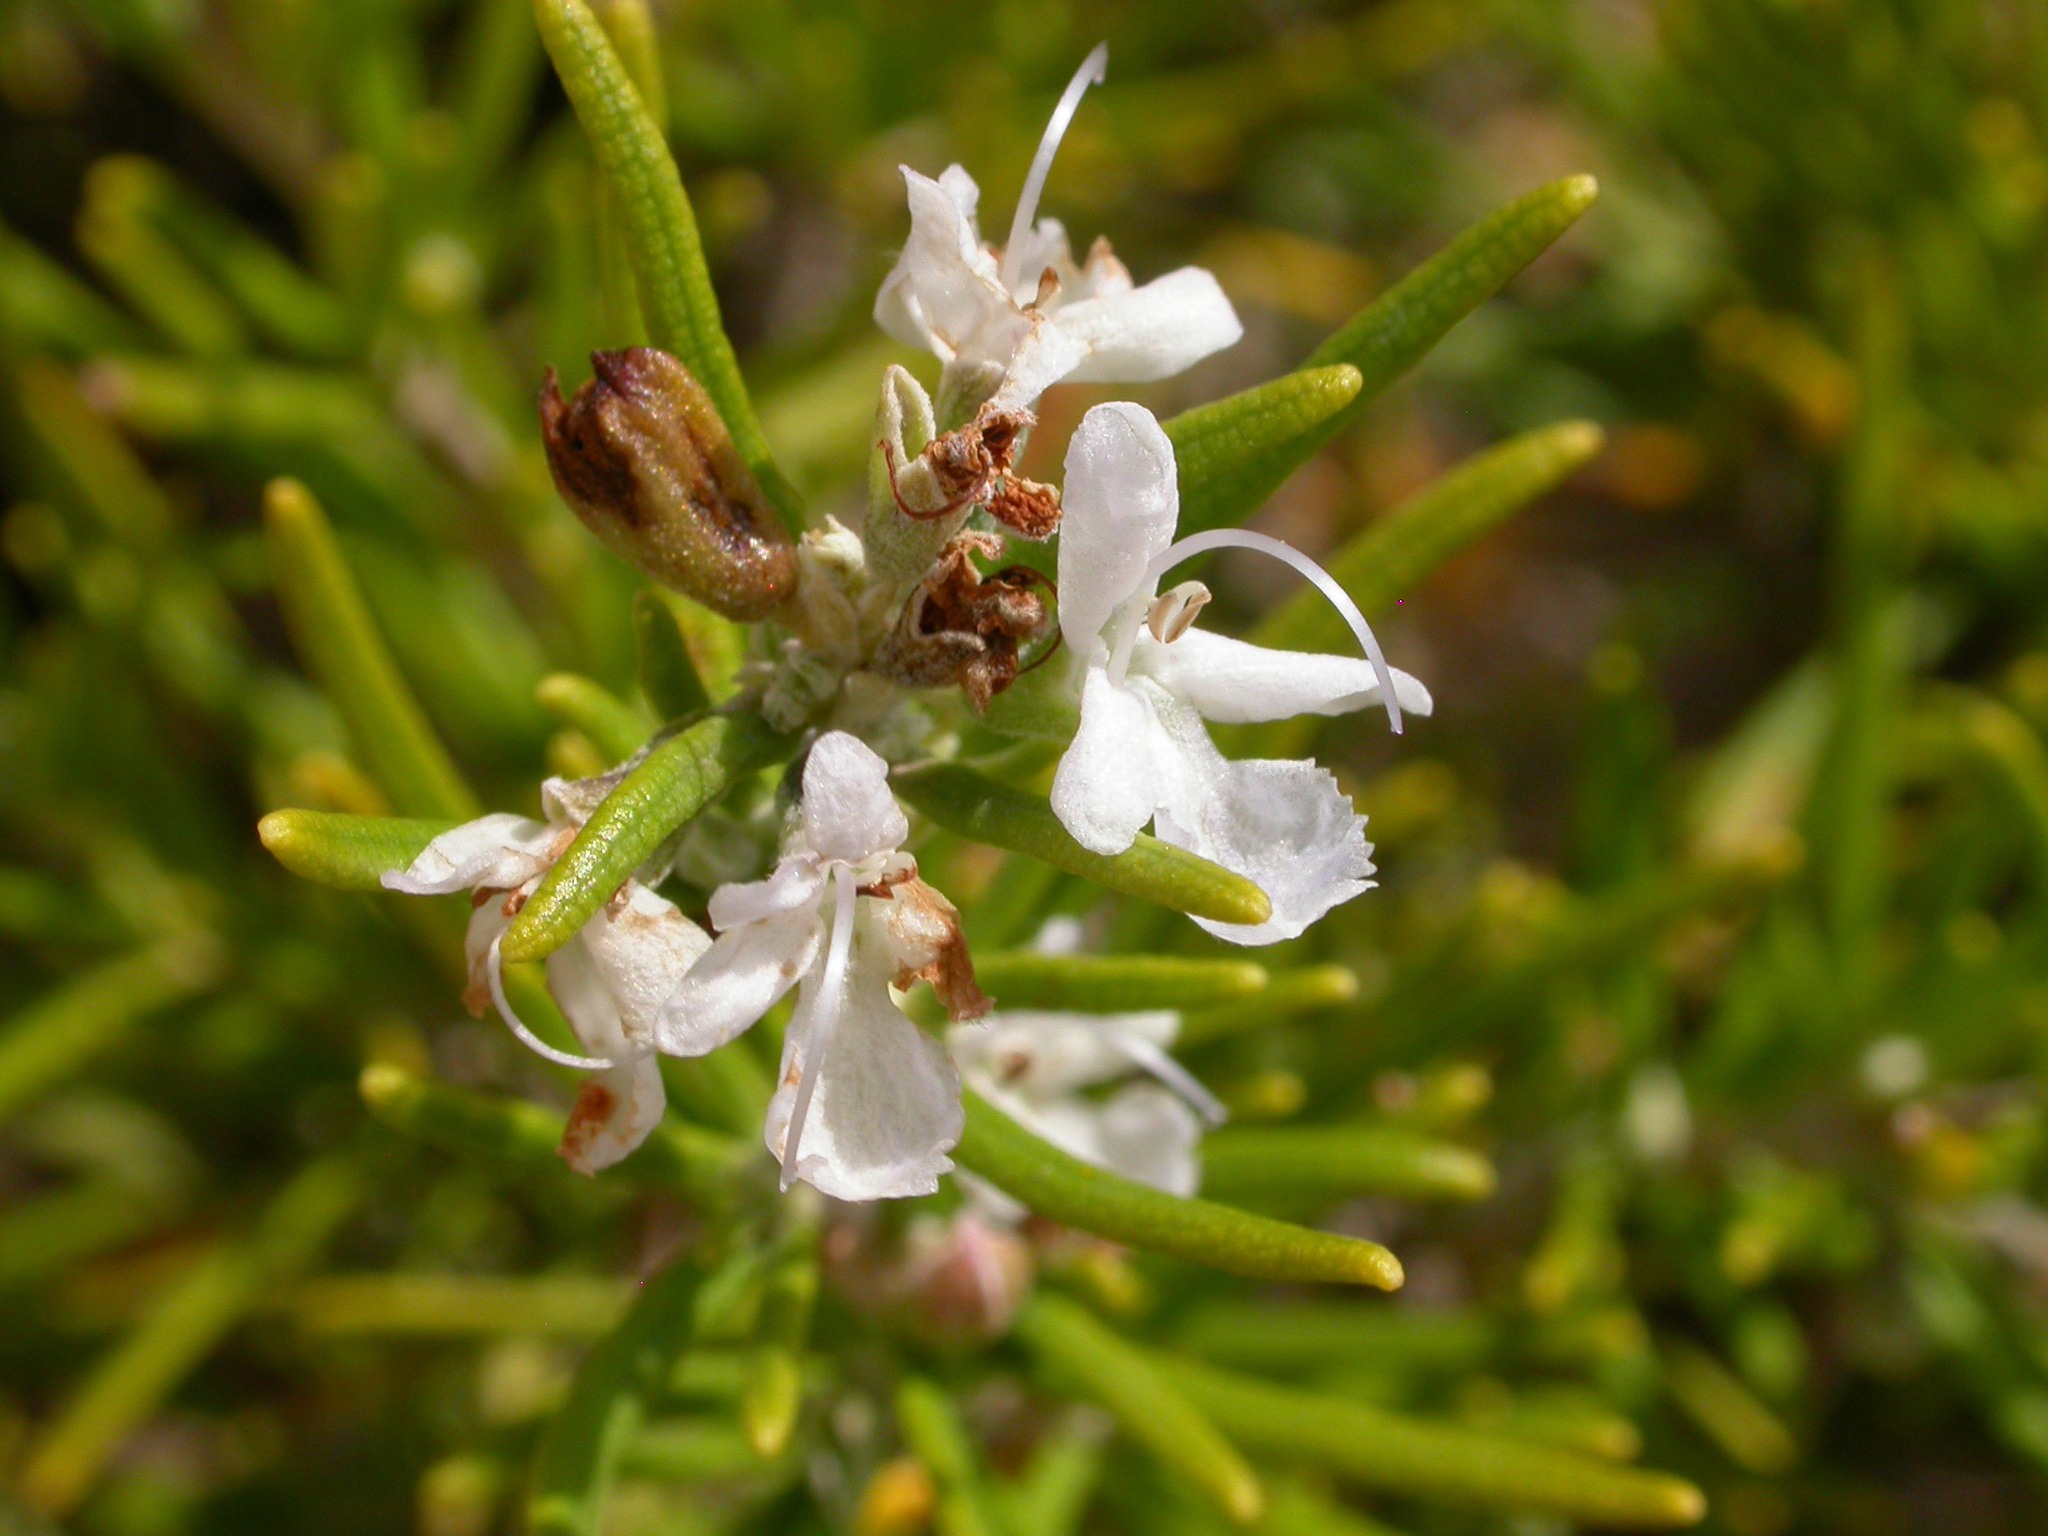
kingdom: Plantae
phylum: Tracheophyta
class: Magnoliopsida
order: Lamiales
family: Lamiaceae
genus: Salvia
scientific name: Salvia rosmarinus
